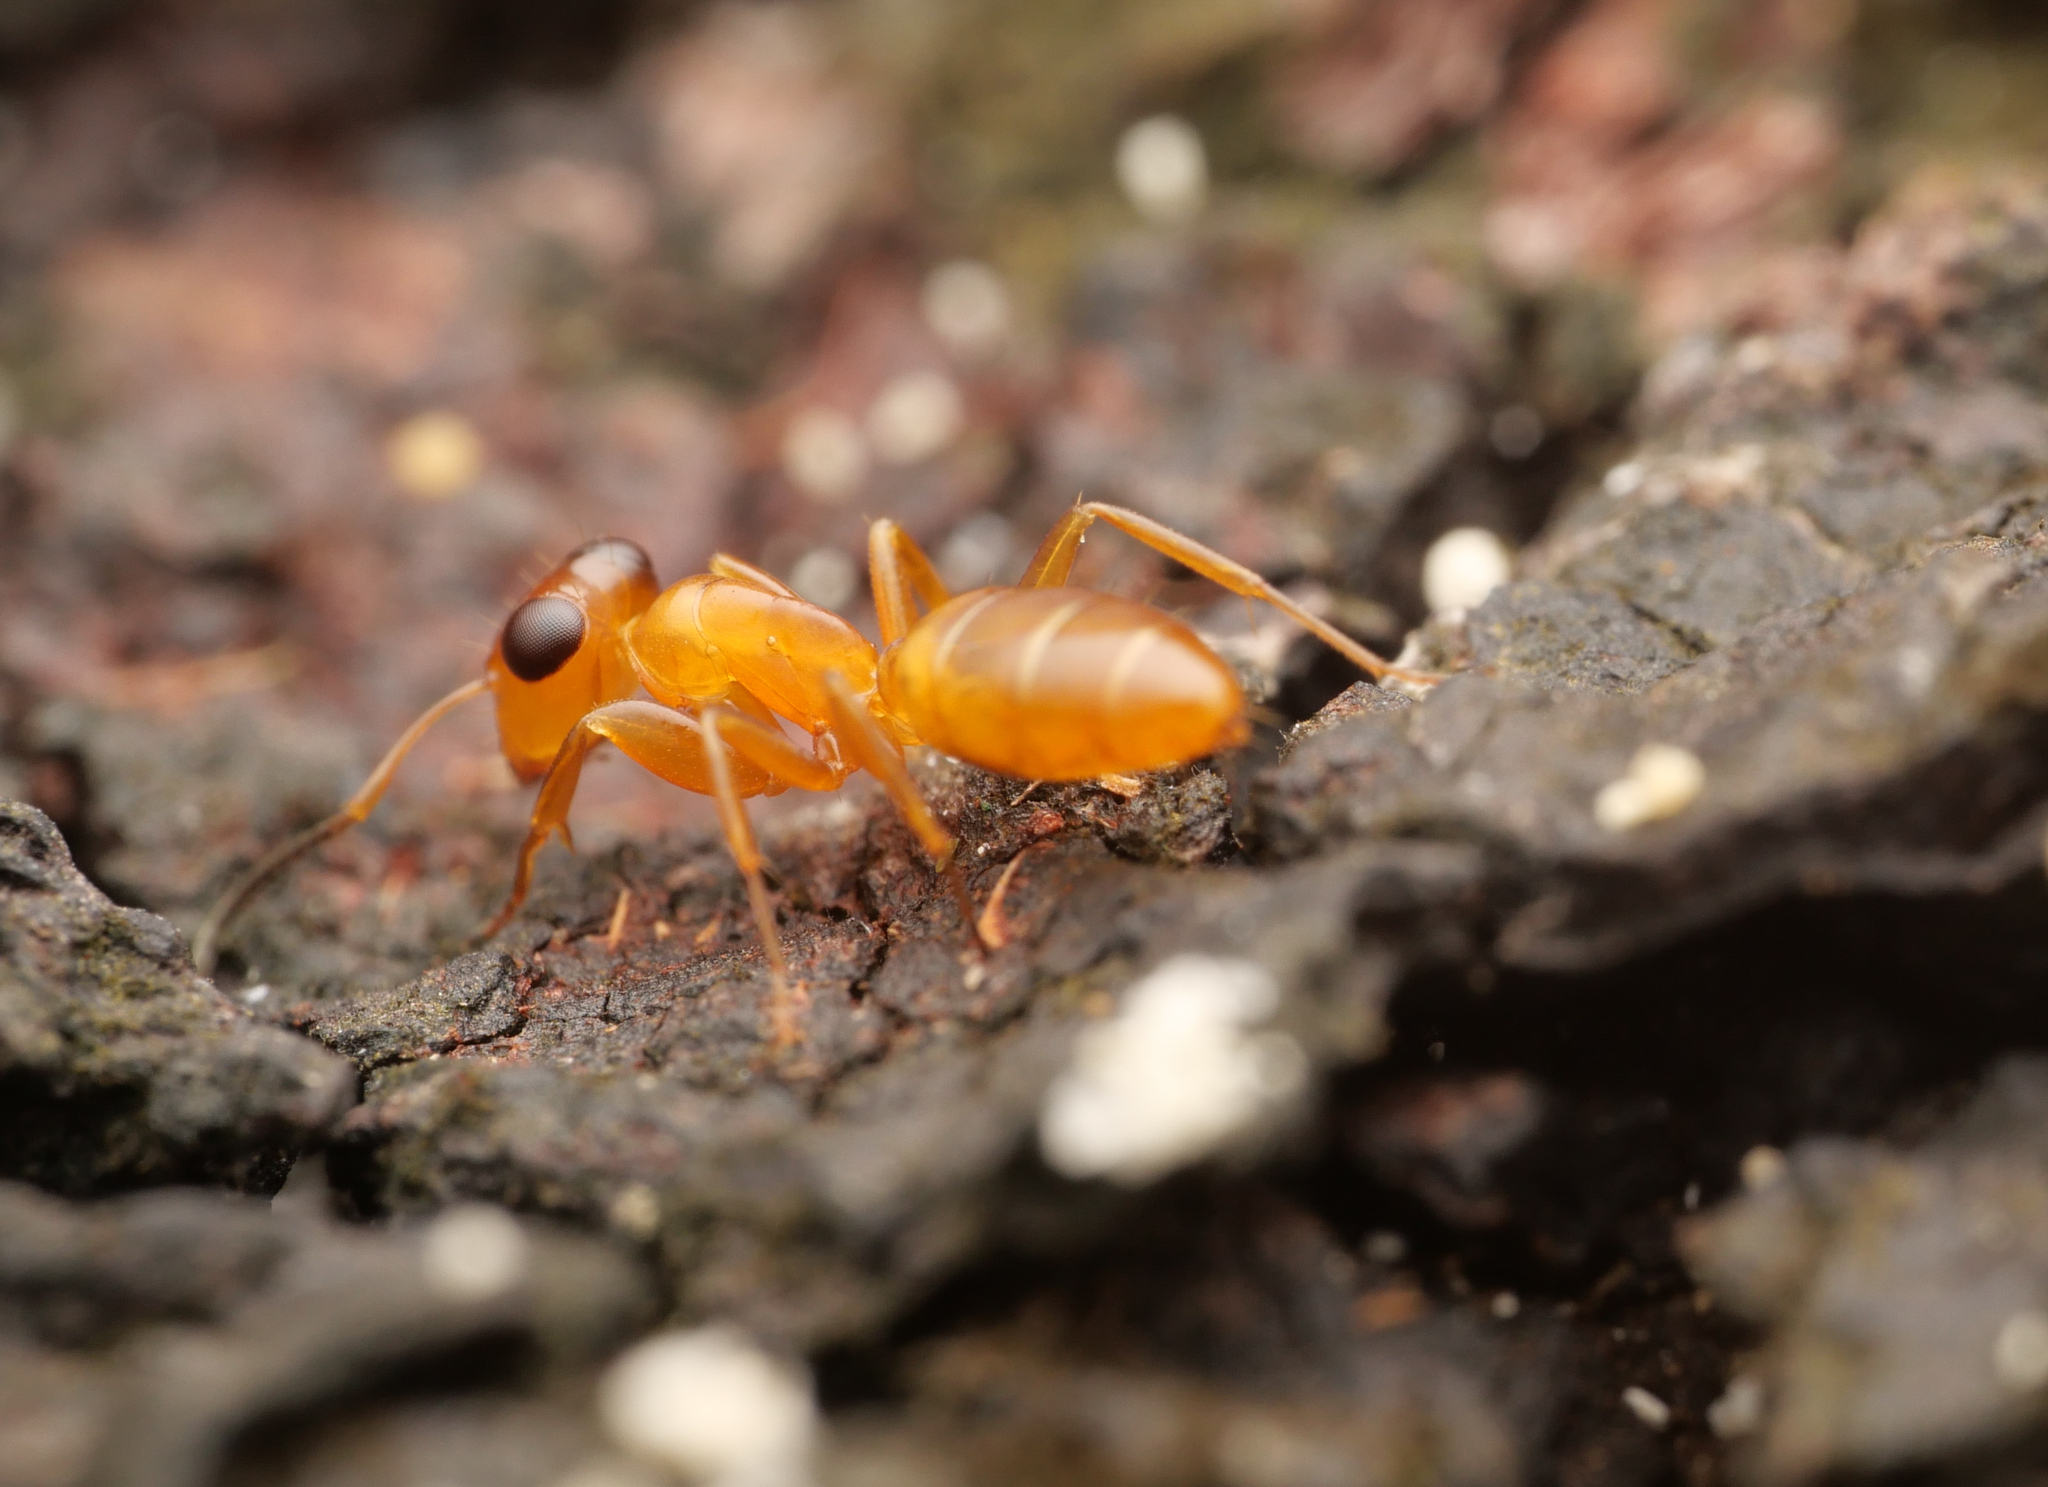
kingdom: Animalia
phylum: Arthropoda
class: Insecta
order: Hymenoptera
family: Formicidae
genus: Opisthopsis
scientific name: Opisthopsis manni
